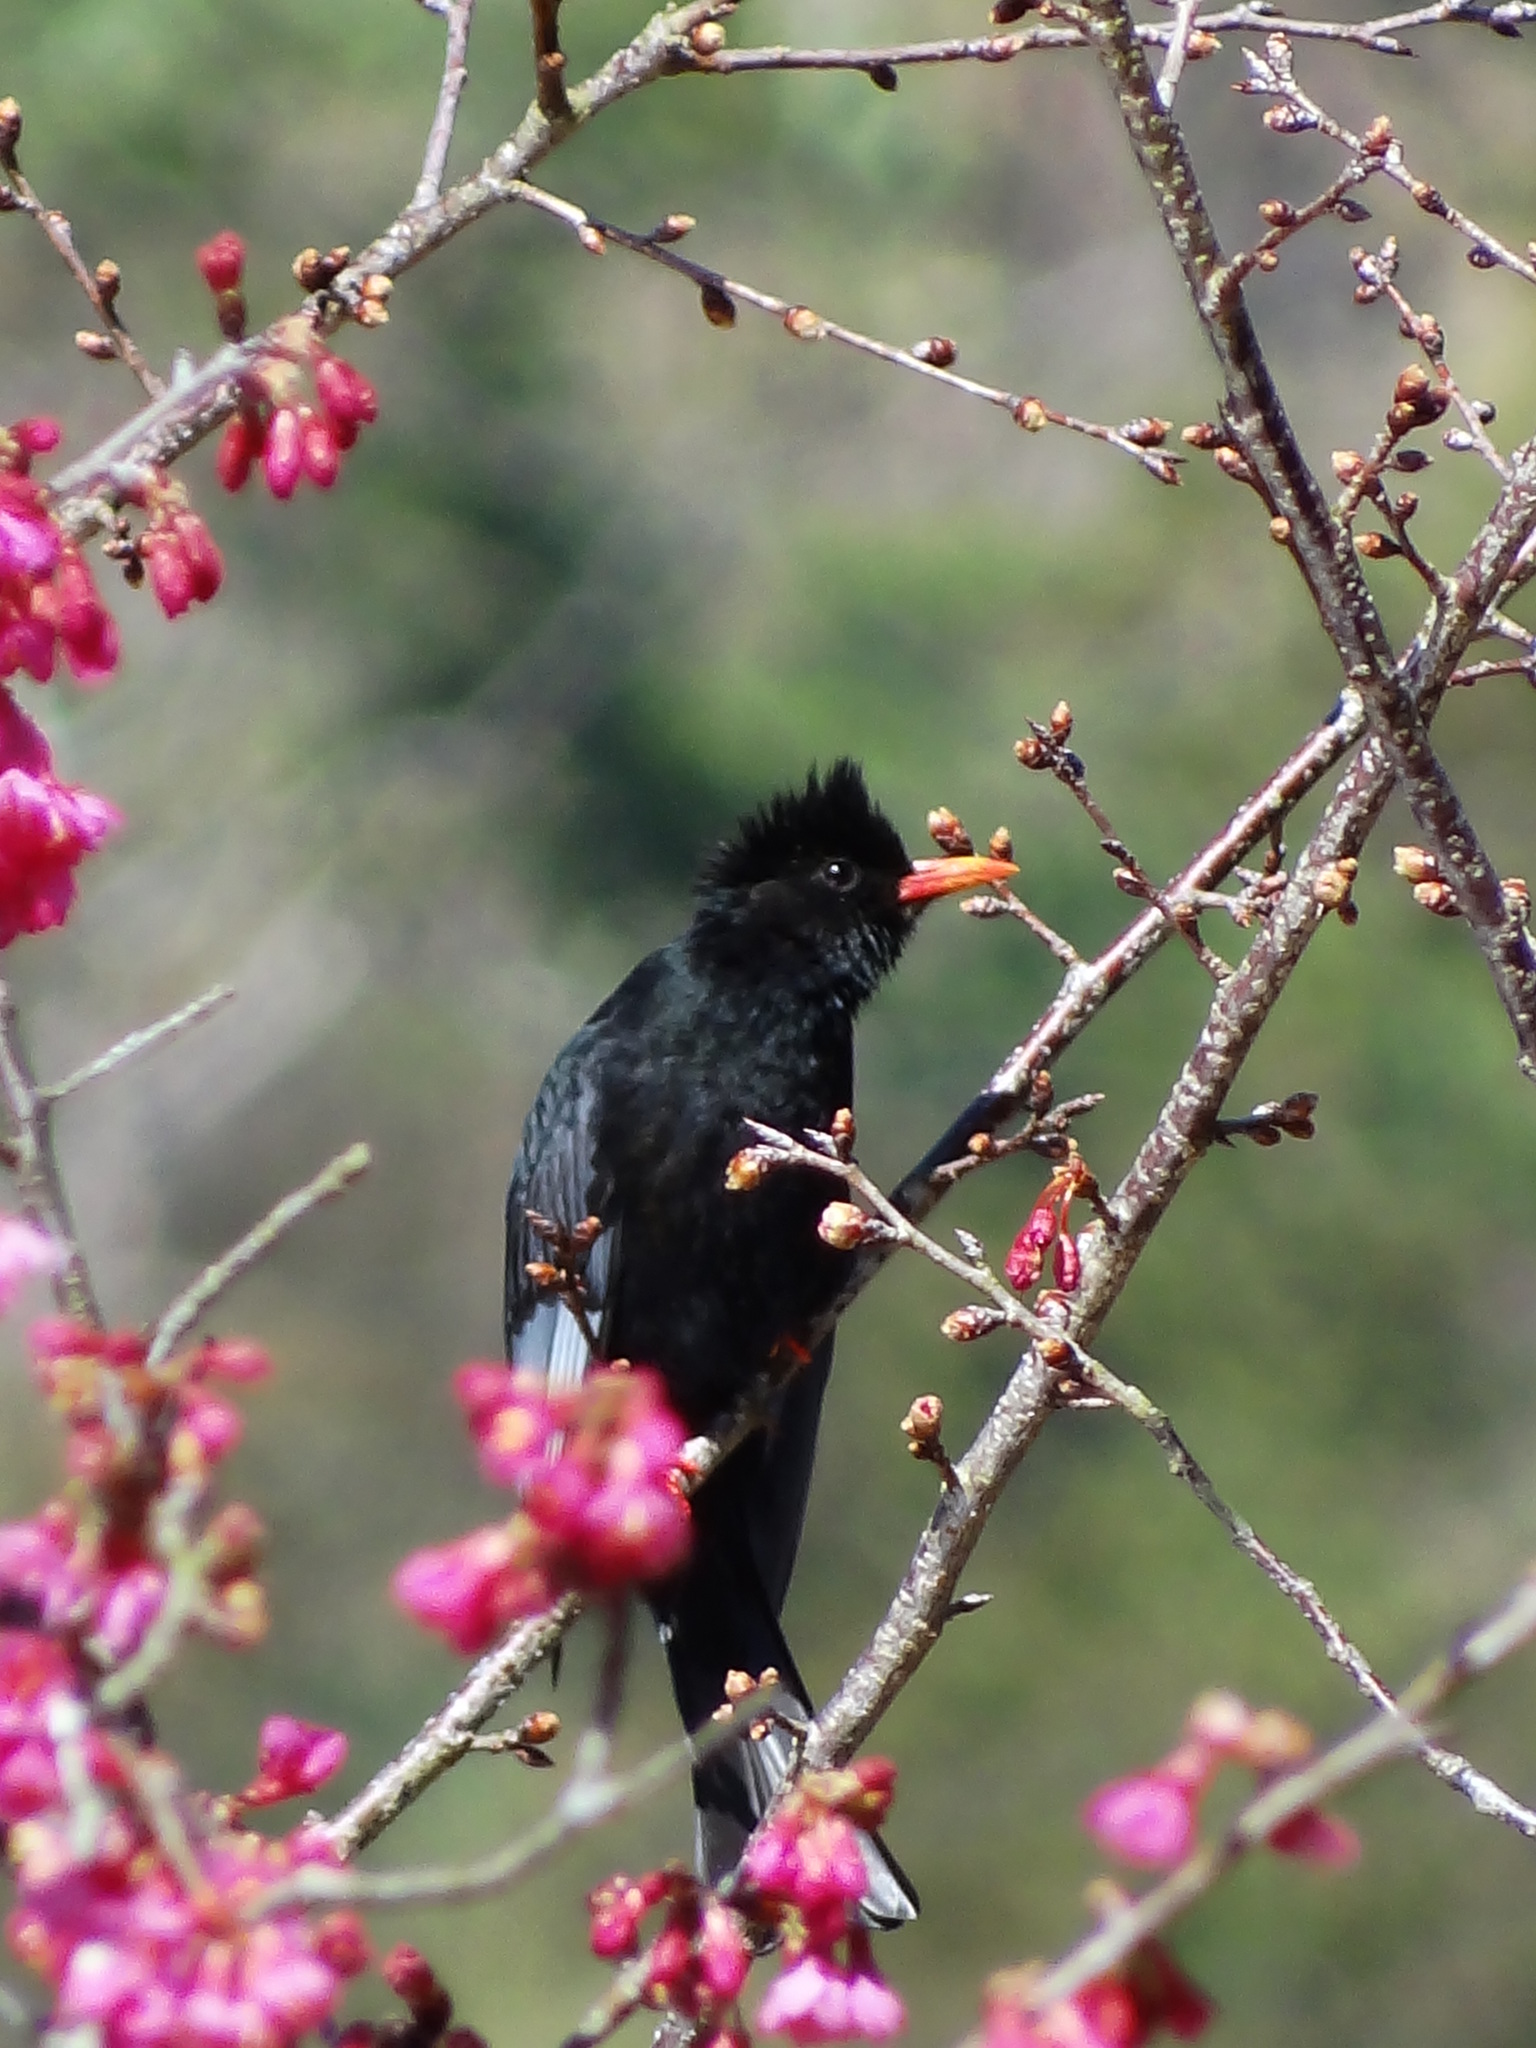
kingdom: Animalia
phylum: Chordata
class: Aves
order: Passeriformes
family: Pycnonotidae
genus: Hypsipetes
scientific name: Hypsipetes leucocephalus
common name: Black bulbul
